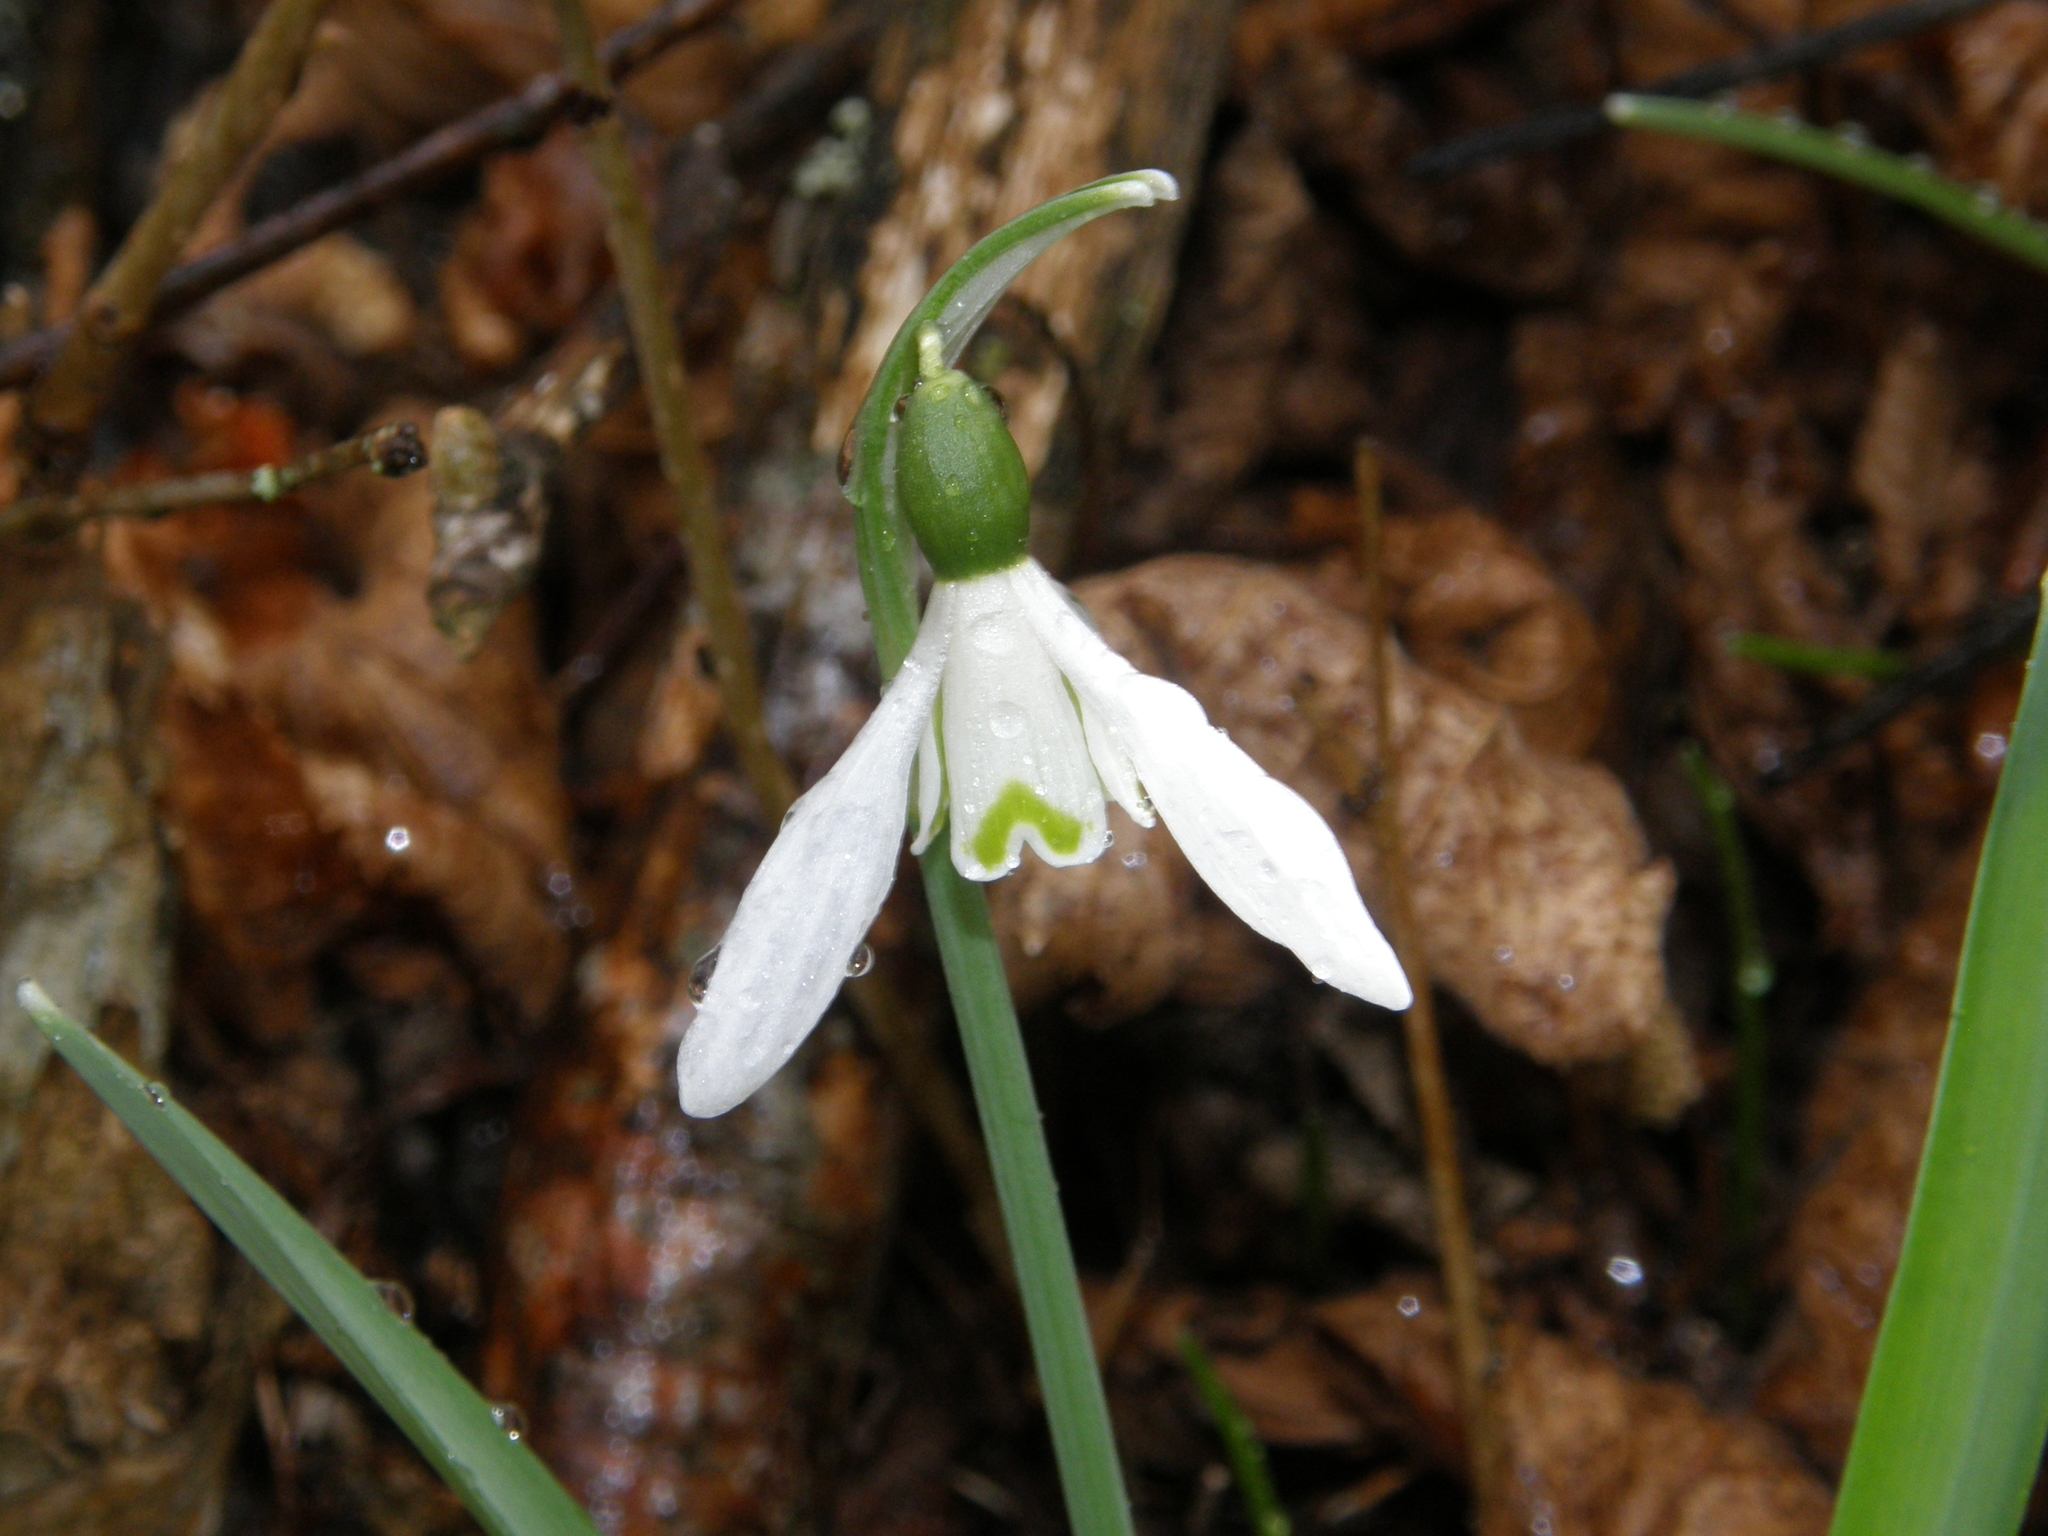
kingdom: Plantae
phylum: Tracheophyta
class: Liliopsida
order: Asparagales
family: Amaryllidaceae
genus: Galanthus
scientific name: Galanthus nivalis
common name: Snowdrop
